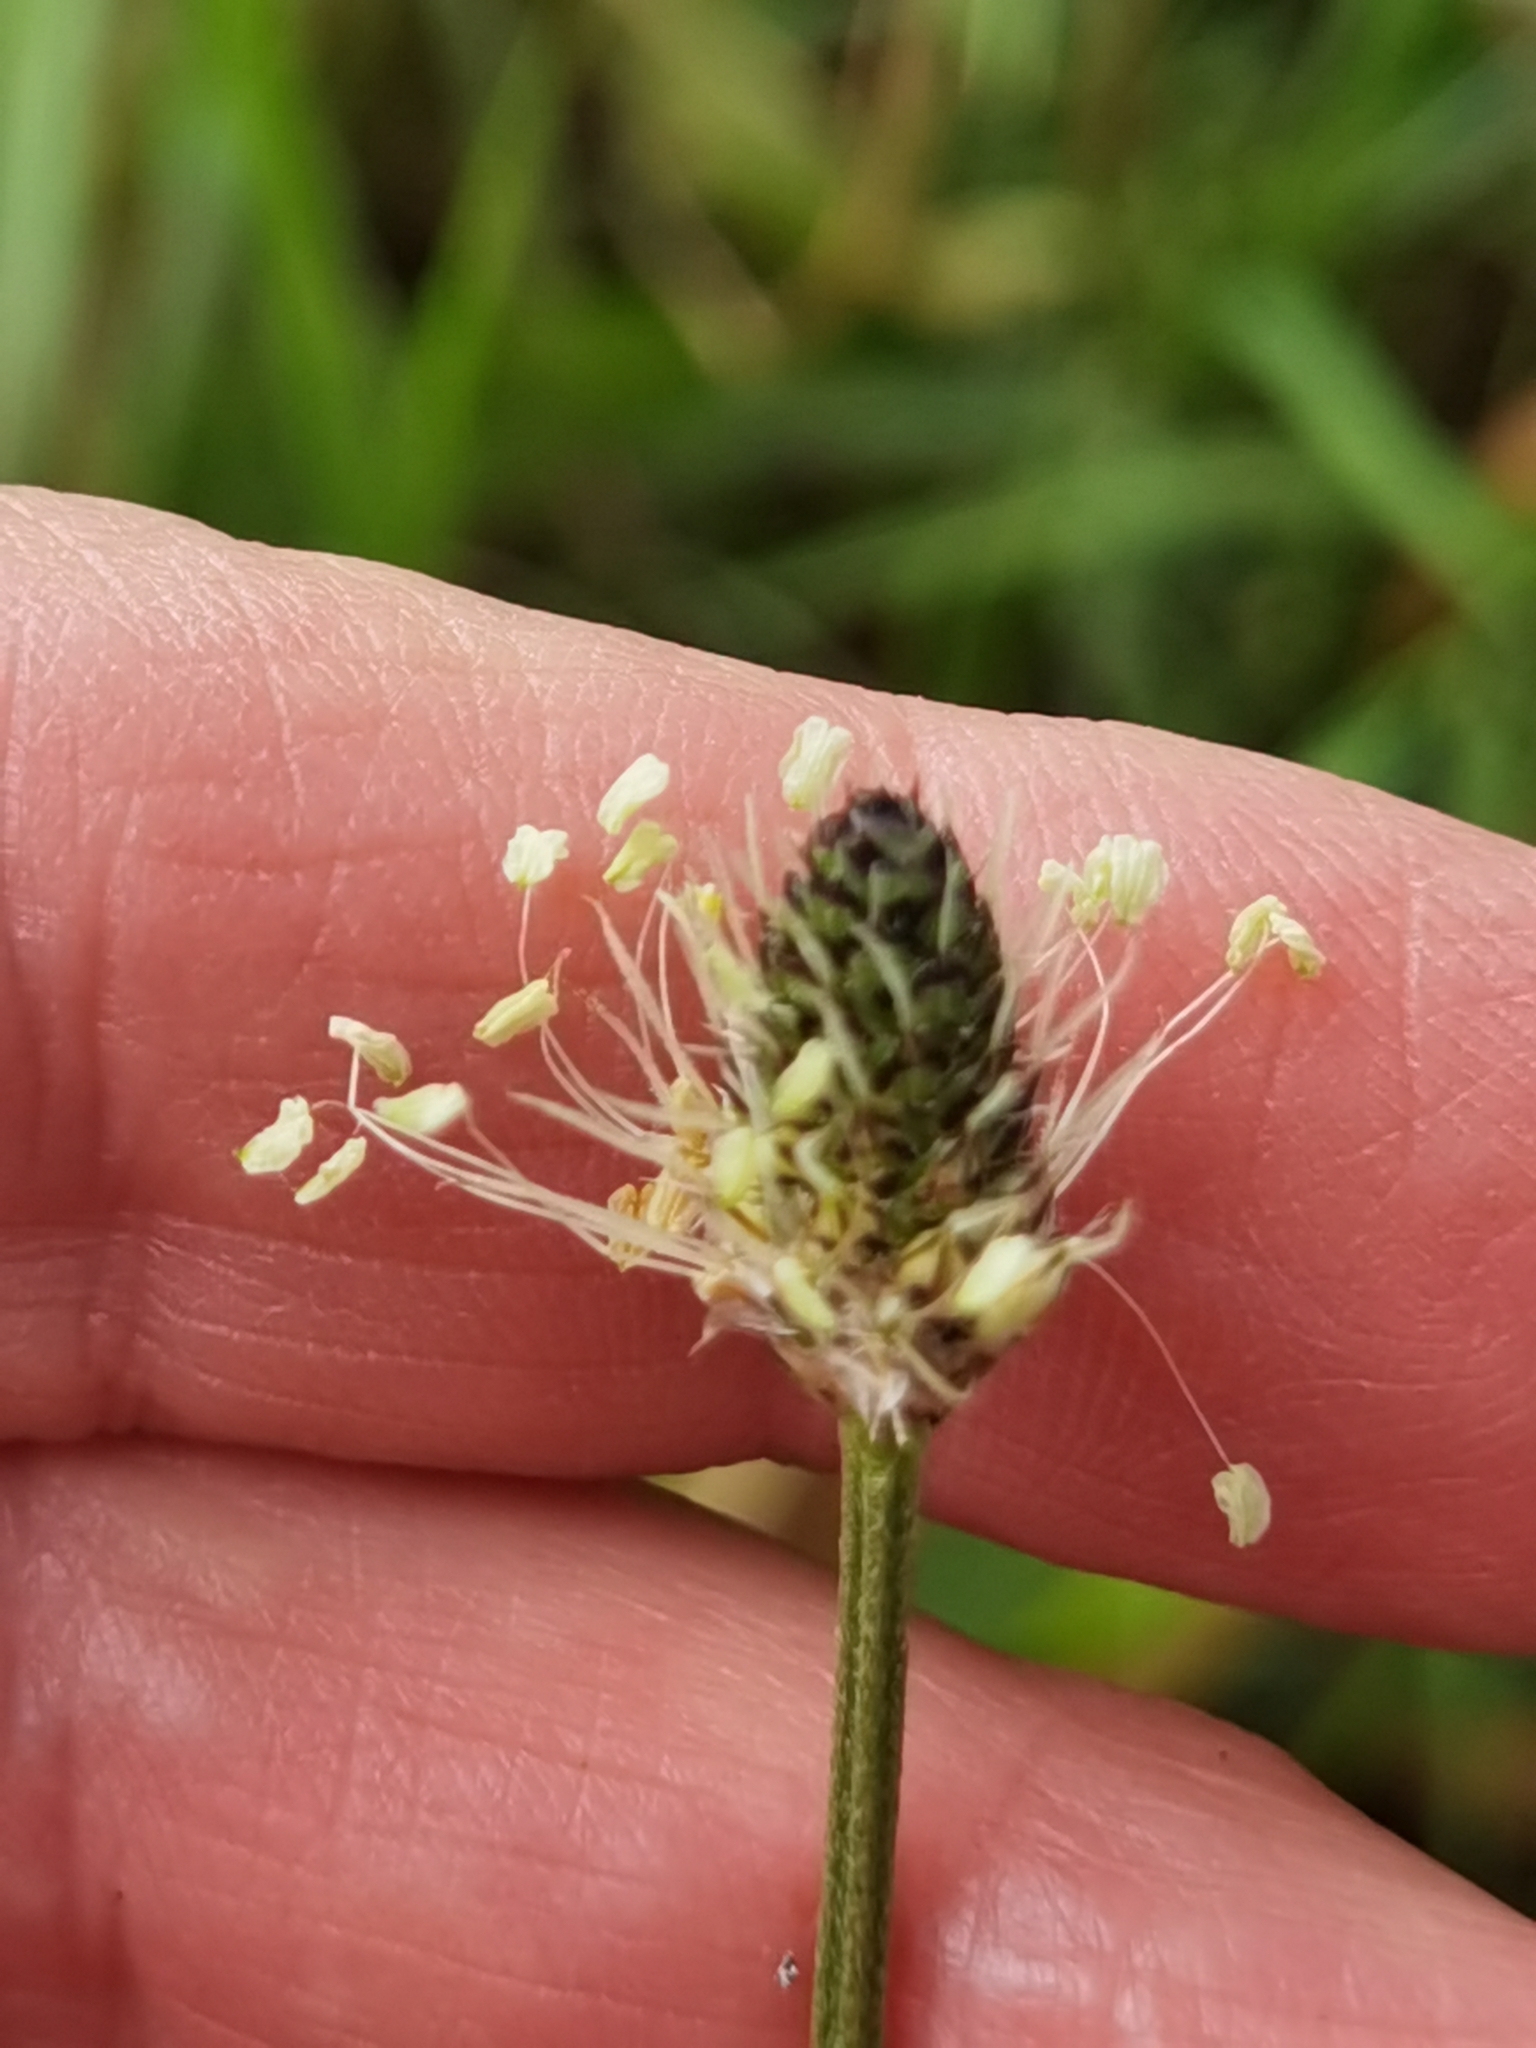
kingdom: Plantae
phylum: Tracheophyta
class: Magnoliopsida
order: Lamiales
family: Plantaginaceae
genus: Plantago
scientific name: Plantago lanceolata
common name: Ribwort plantain
